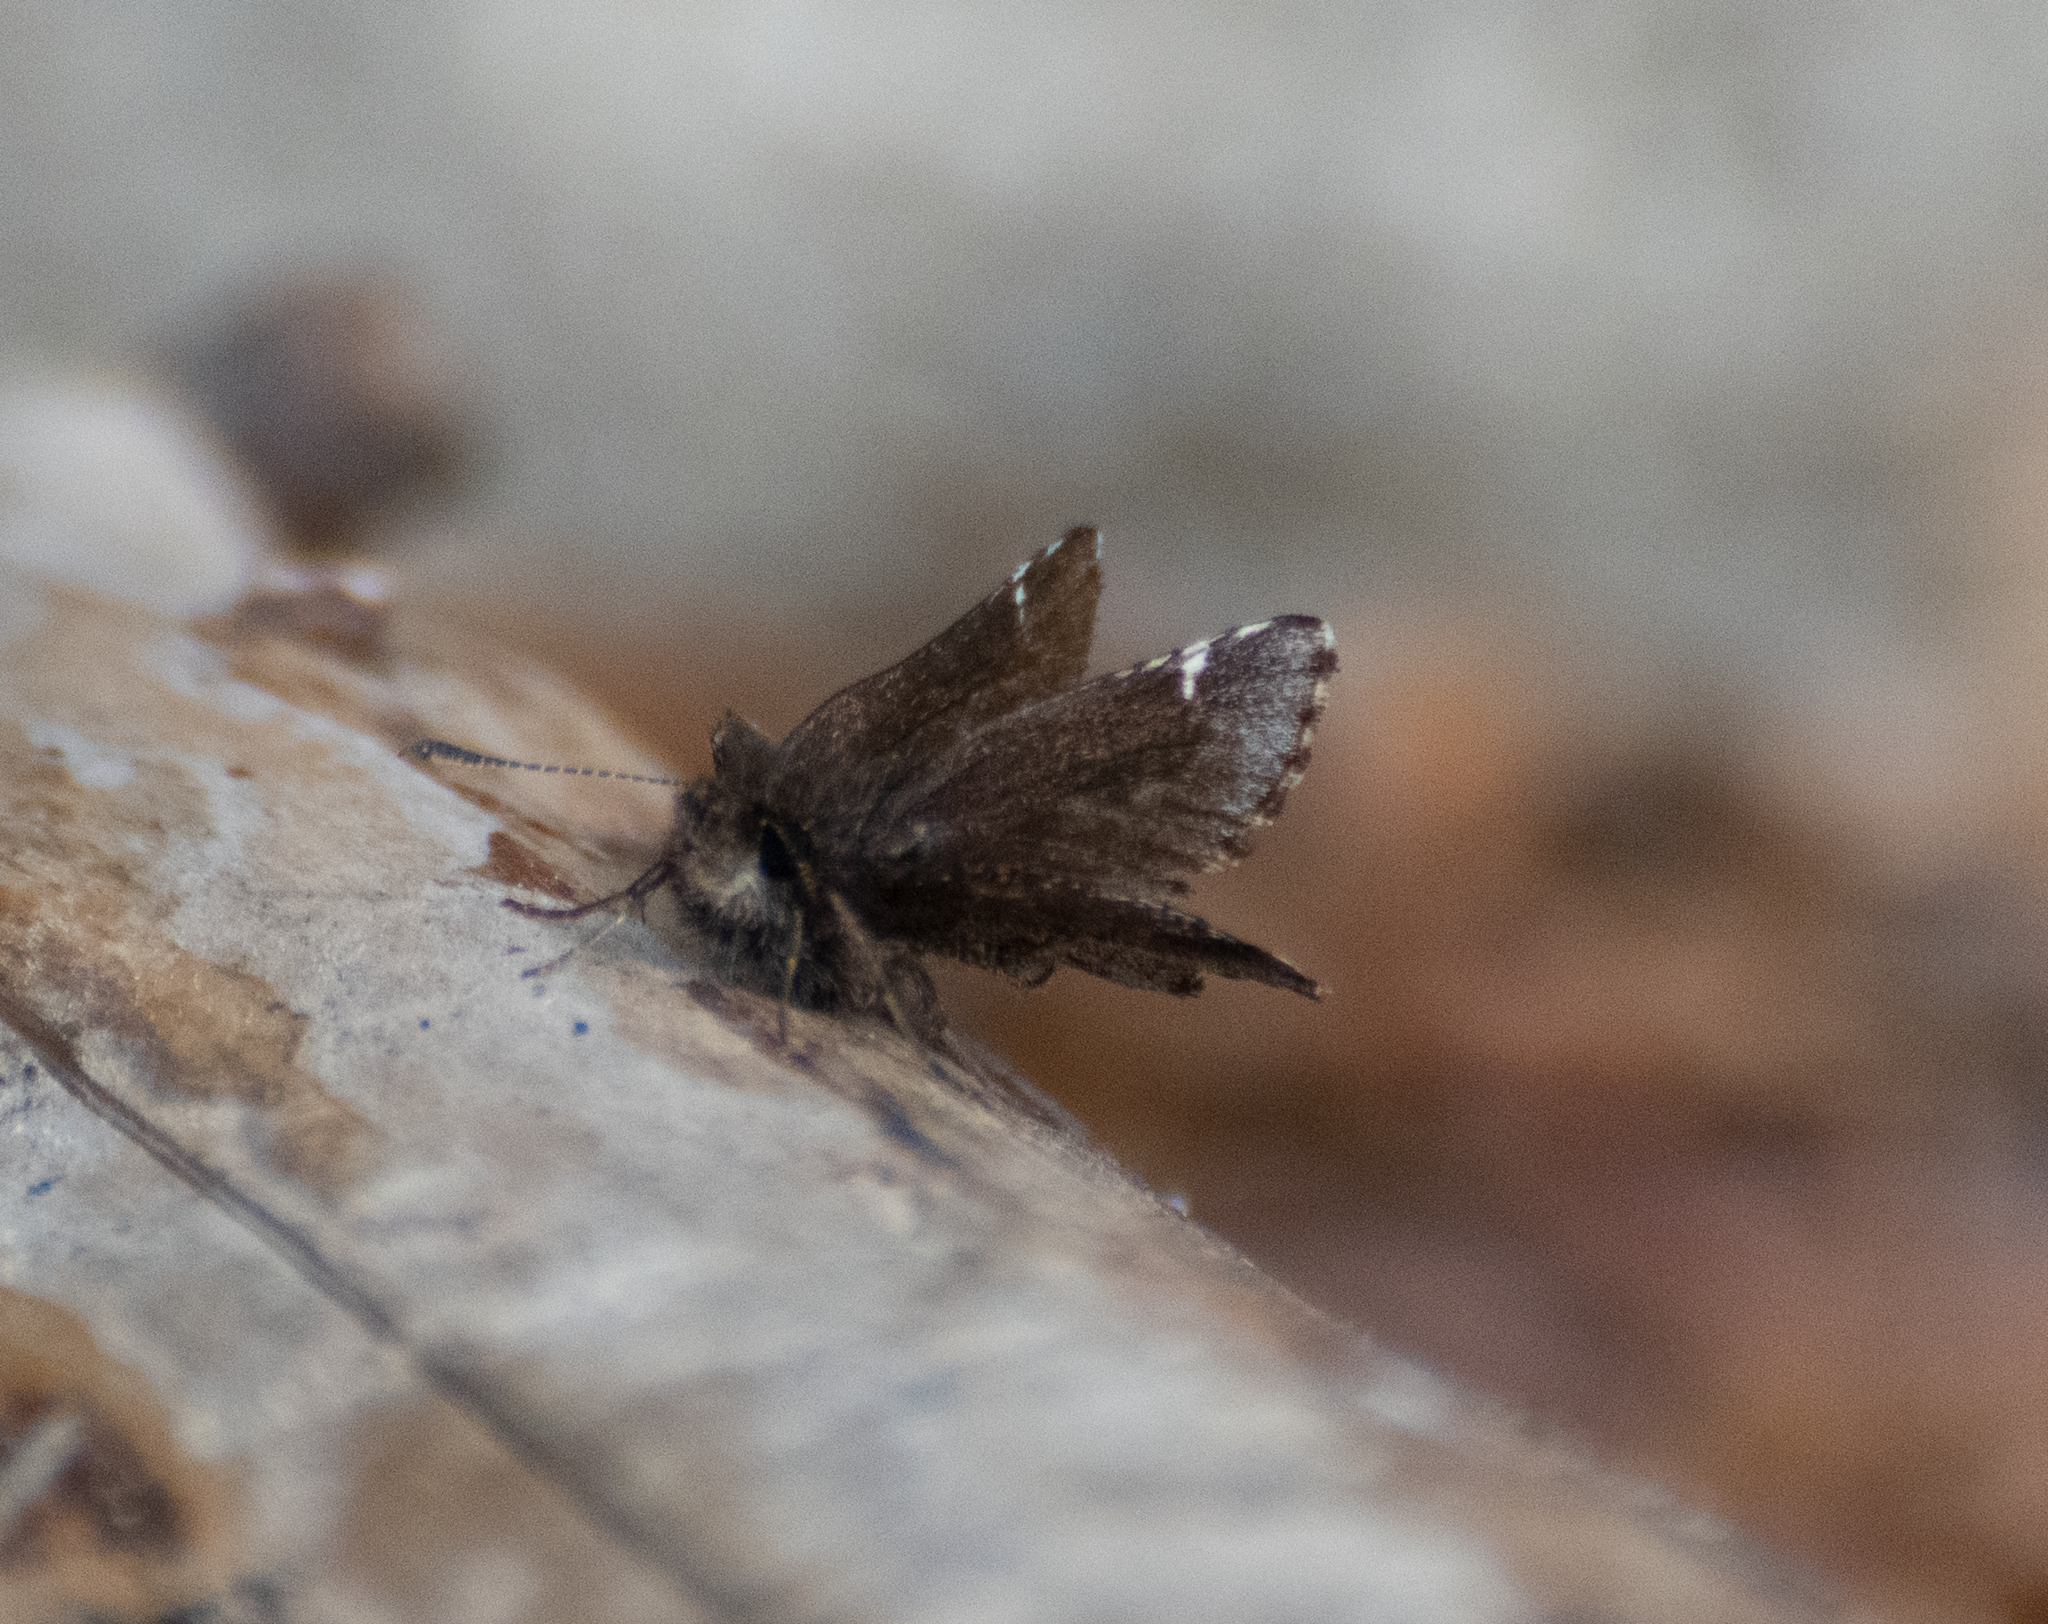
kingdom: Animalia
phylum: Arthropoda
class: Insecta
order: Lepidoptera
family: Hesperiidae
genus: Mastor
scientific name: Mastor vialis
